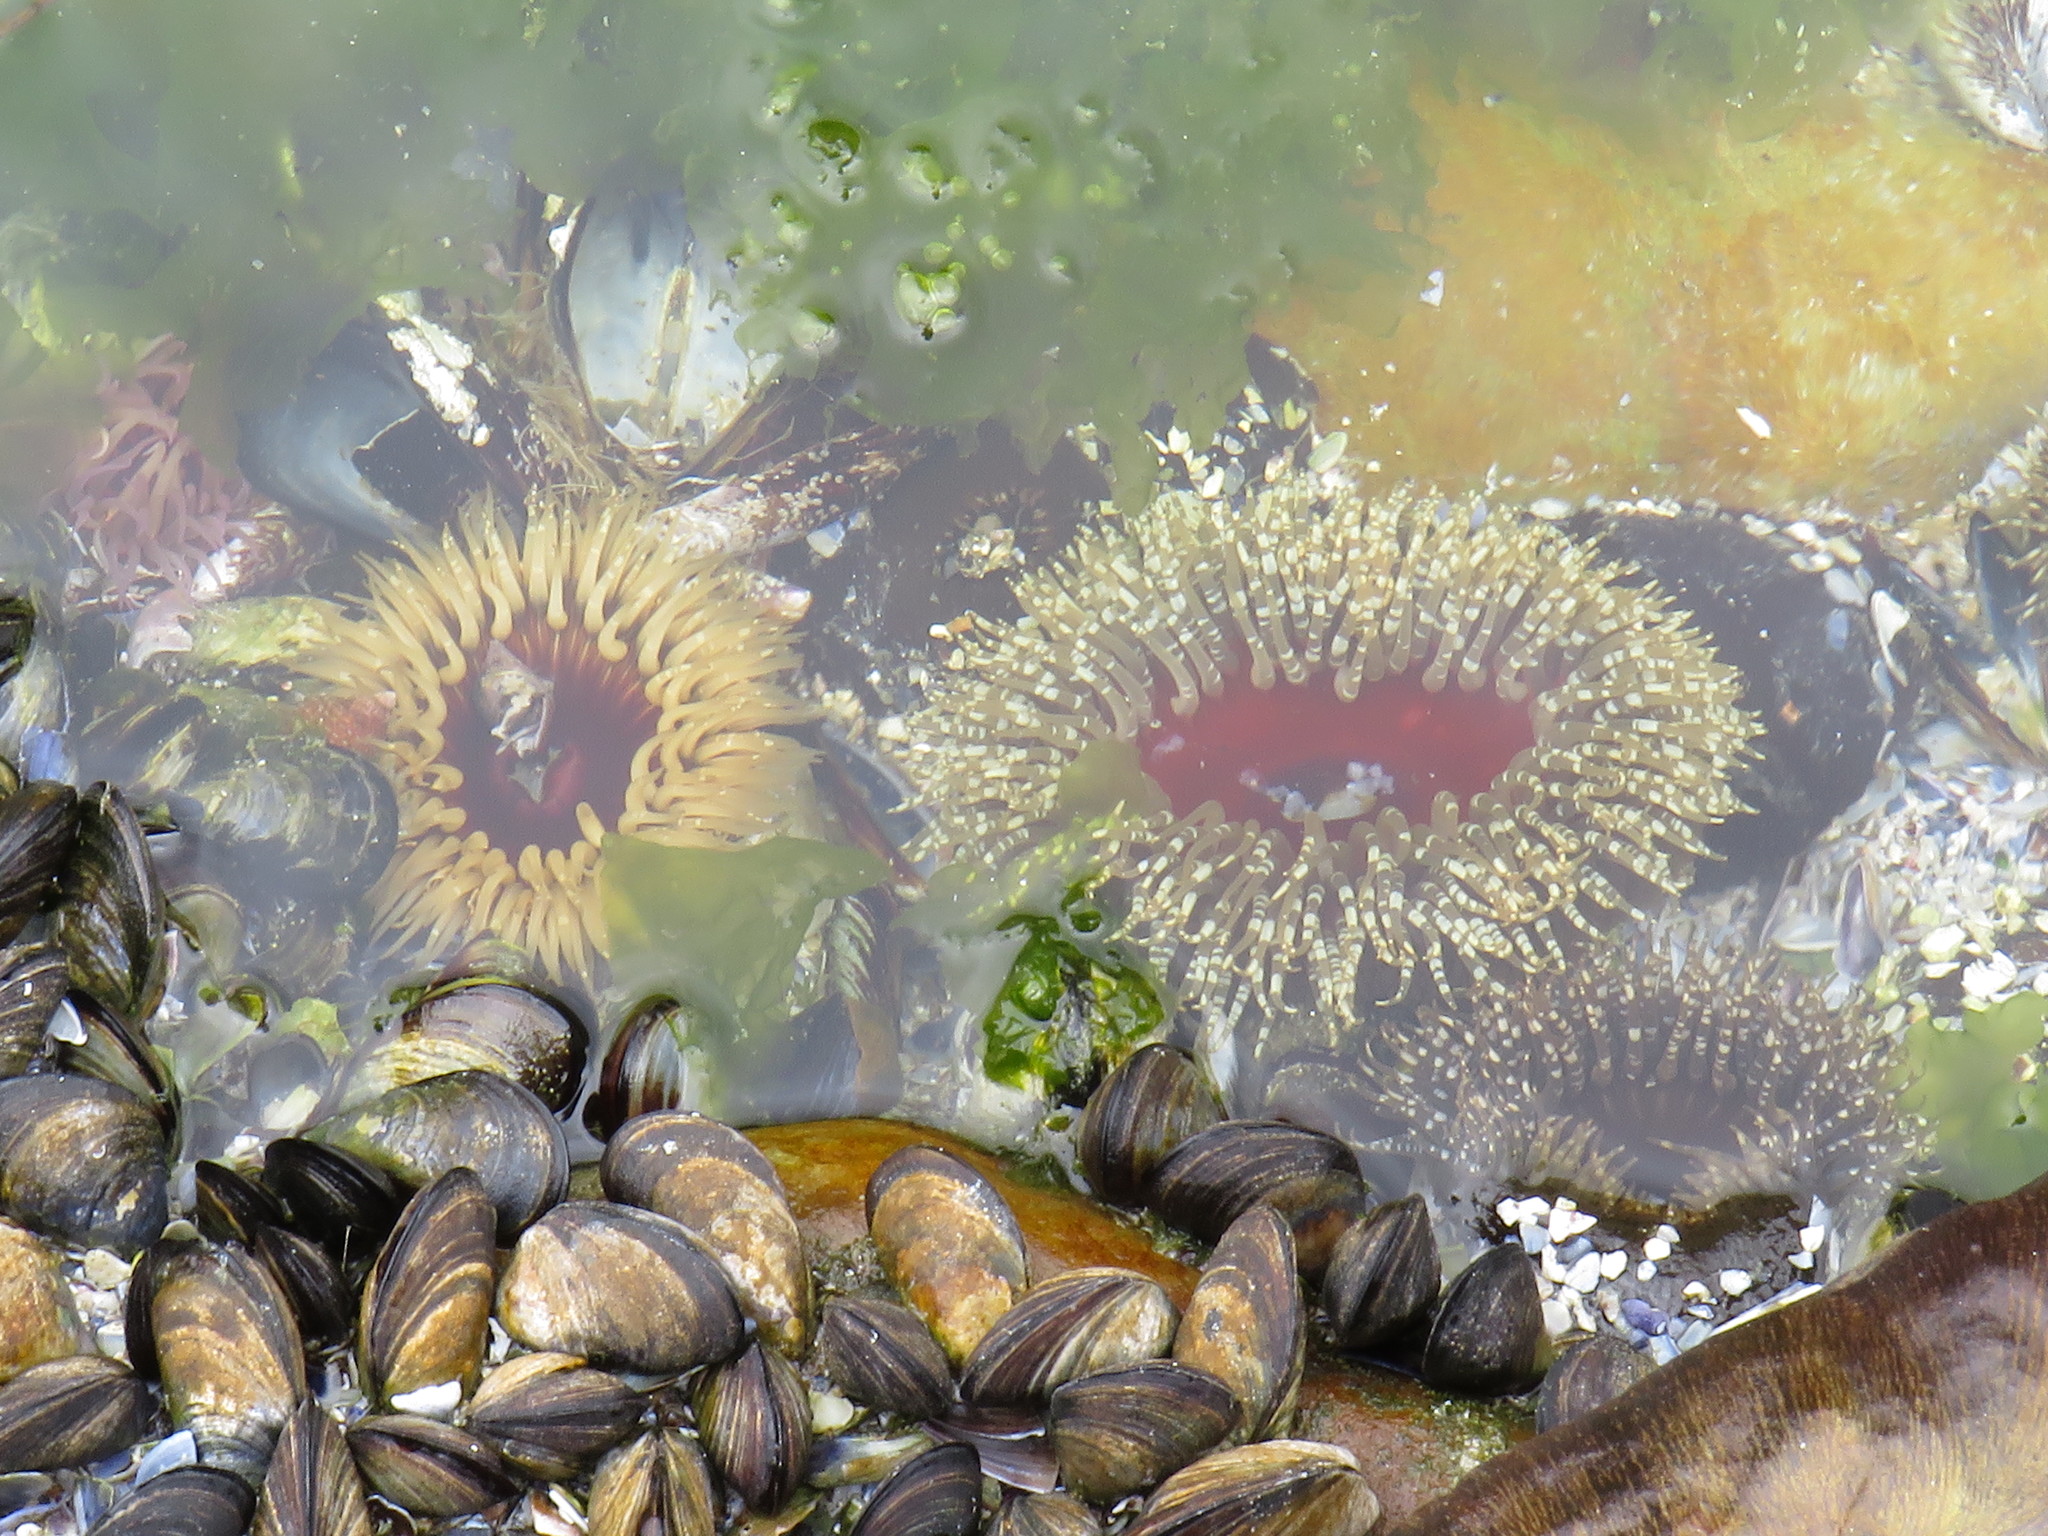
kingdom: Animalia
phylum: Cnidaria
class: Anthozoa
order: Actiniaria
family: Actiniidae
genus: Bunodactis
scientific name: Bunodactis reynaudi
